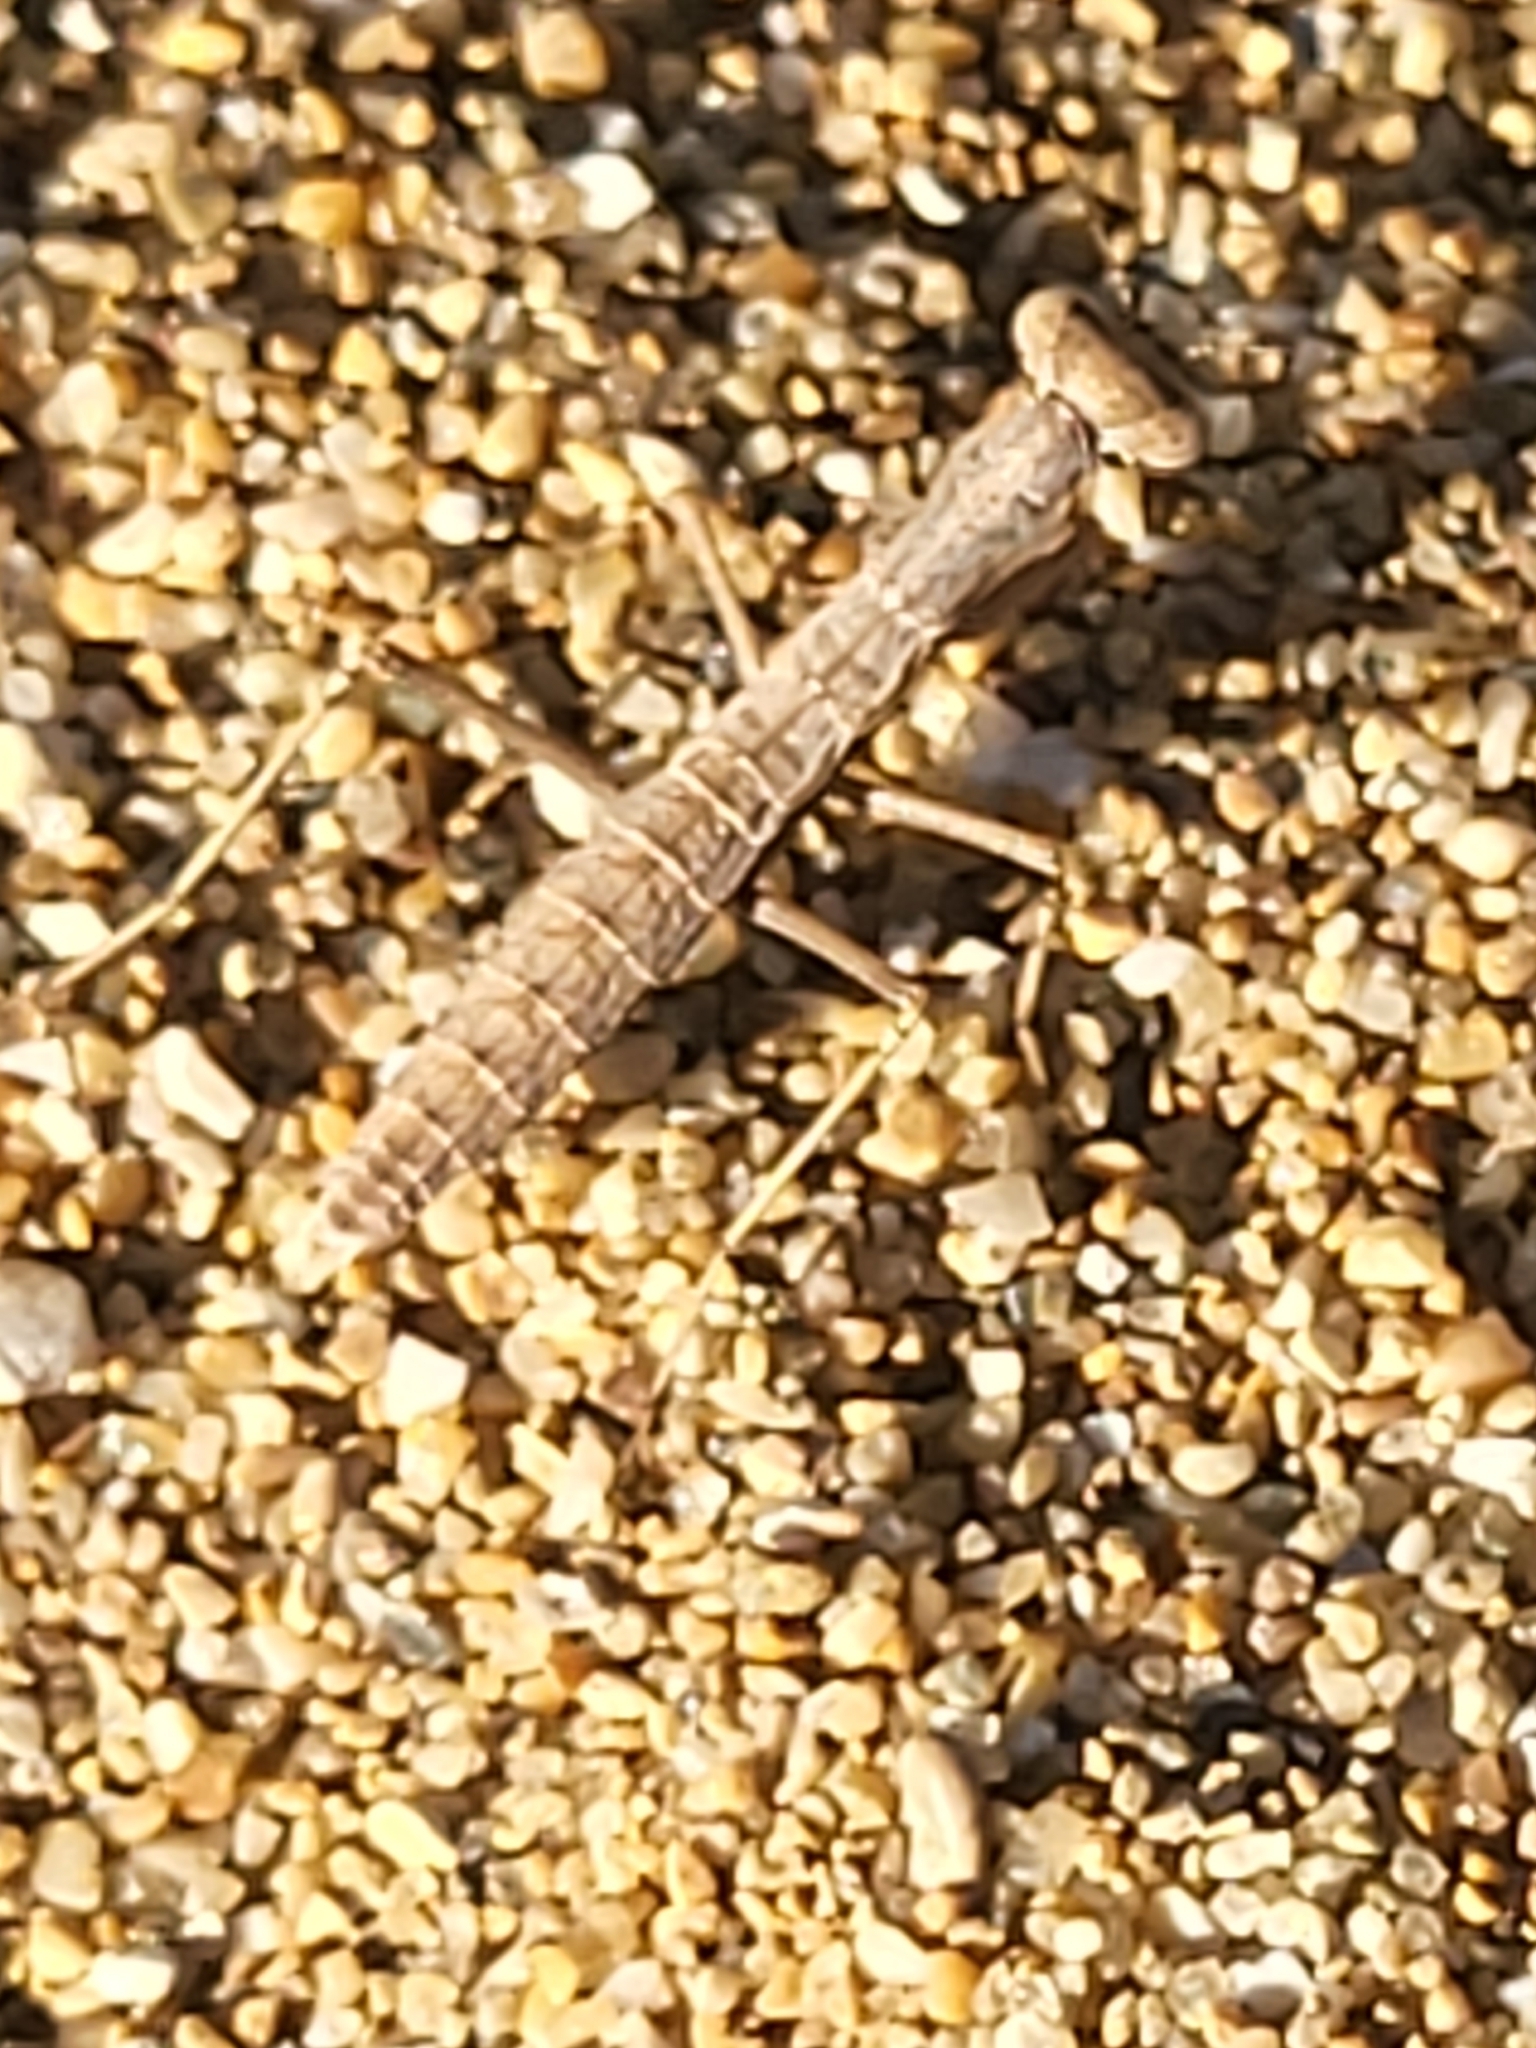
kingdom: Animalia
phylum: Arthropoda
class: Insecta
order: Mantodea
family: Rivetinidae
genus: Geomantis
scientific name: Geomantis larvoides
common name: Wingless ground mantis
